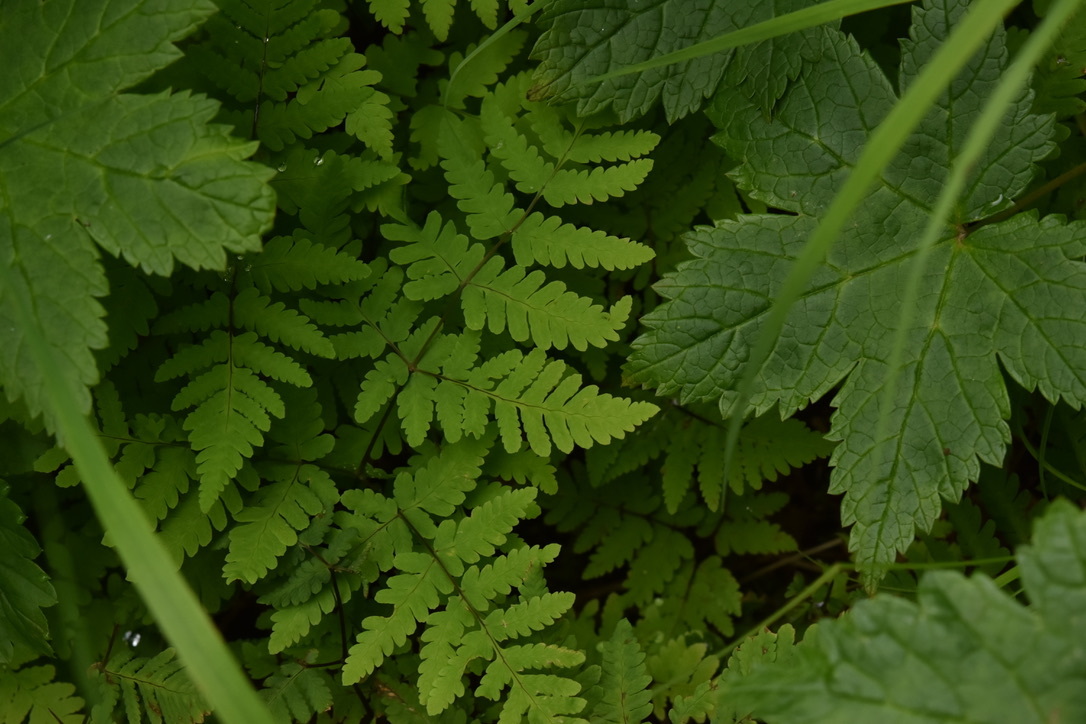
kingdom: Plantae
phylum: Tracheophyta
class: Polypodiopsida
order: Polypodiales
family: Cystopteridaceae
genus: Gymnocarpium
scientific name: Gymnocarpium dryopteris
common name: Oak fern
